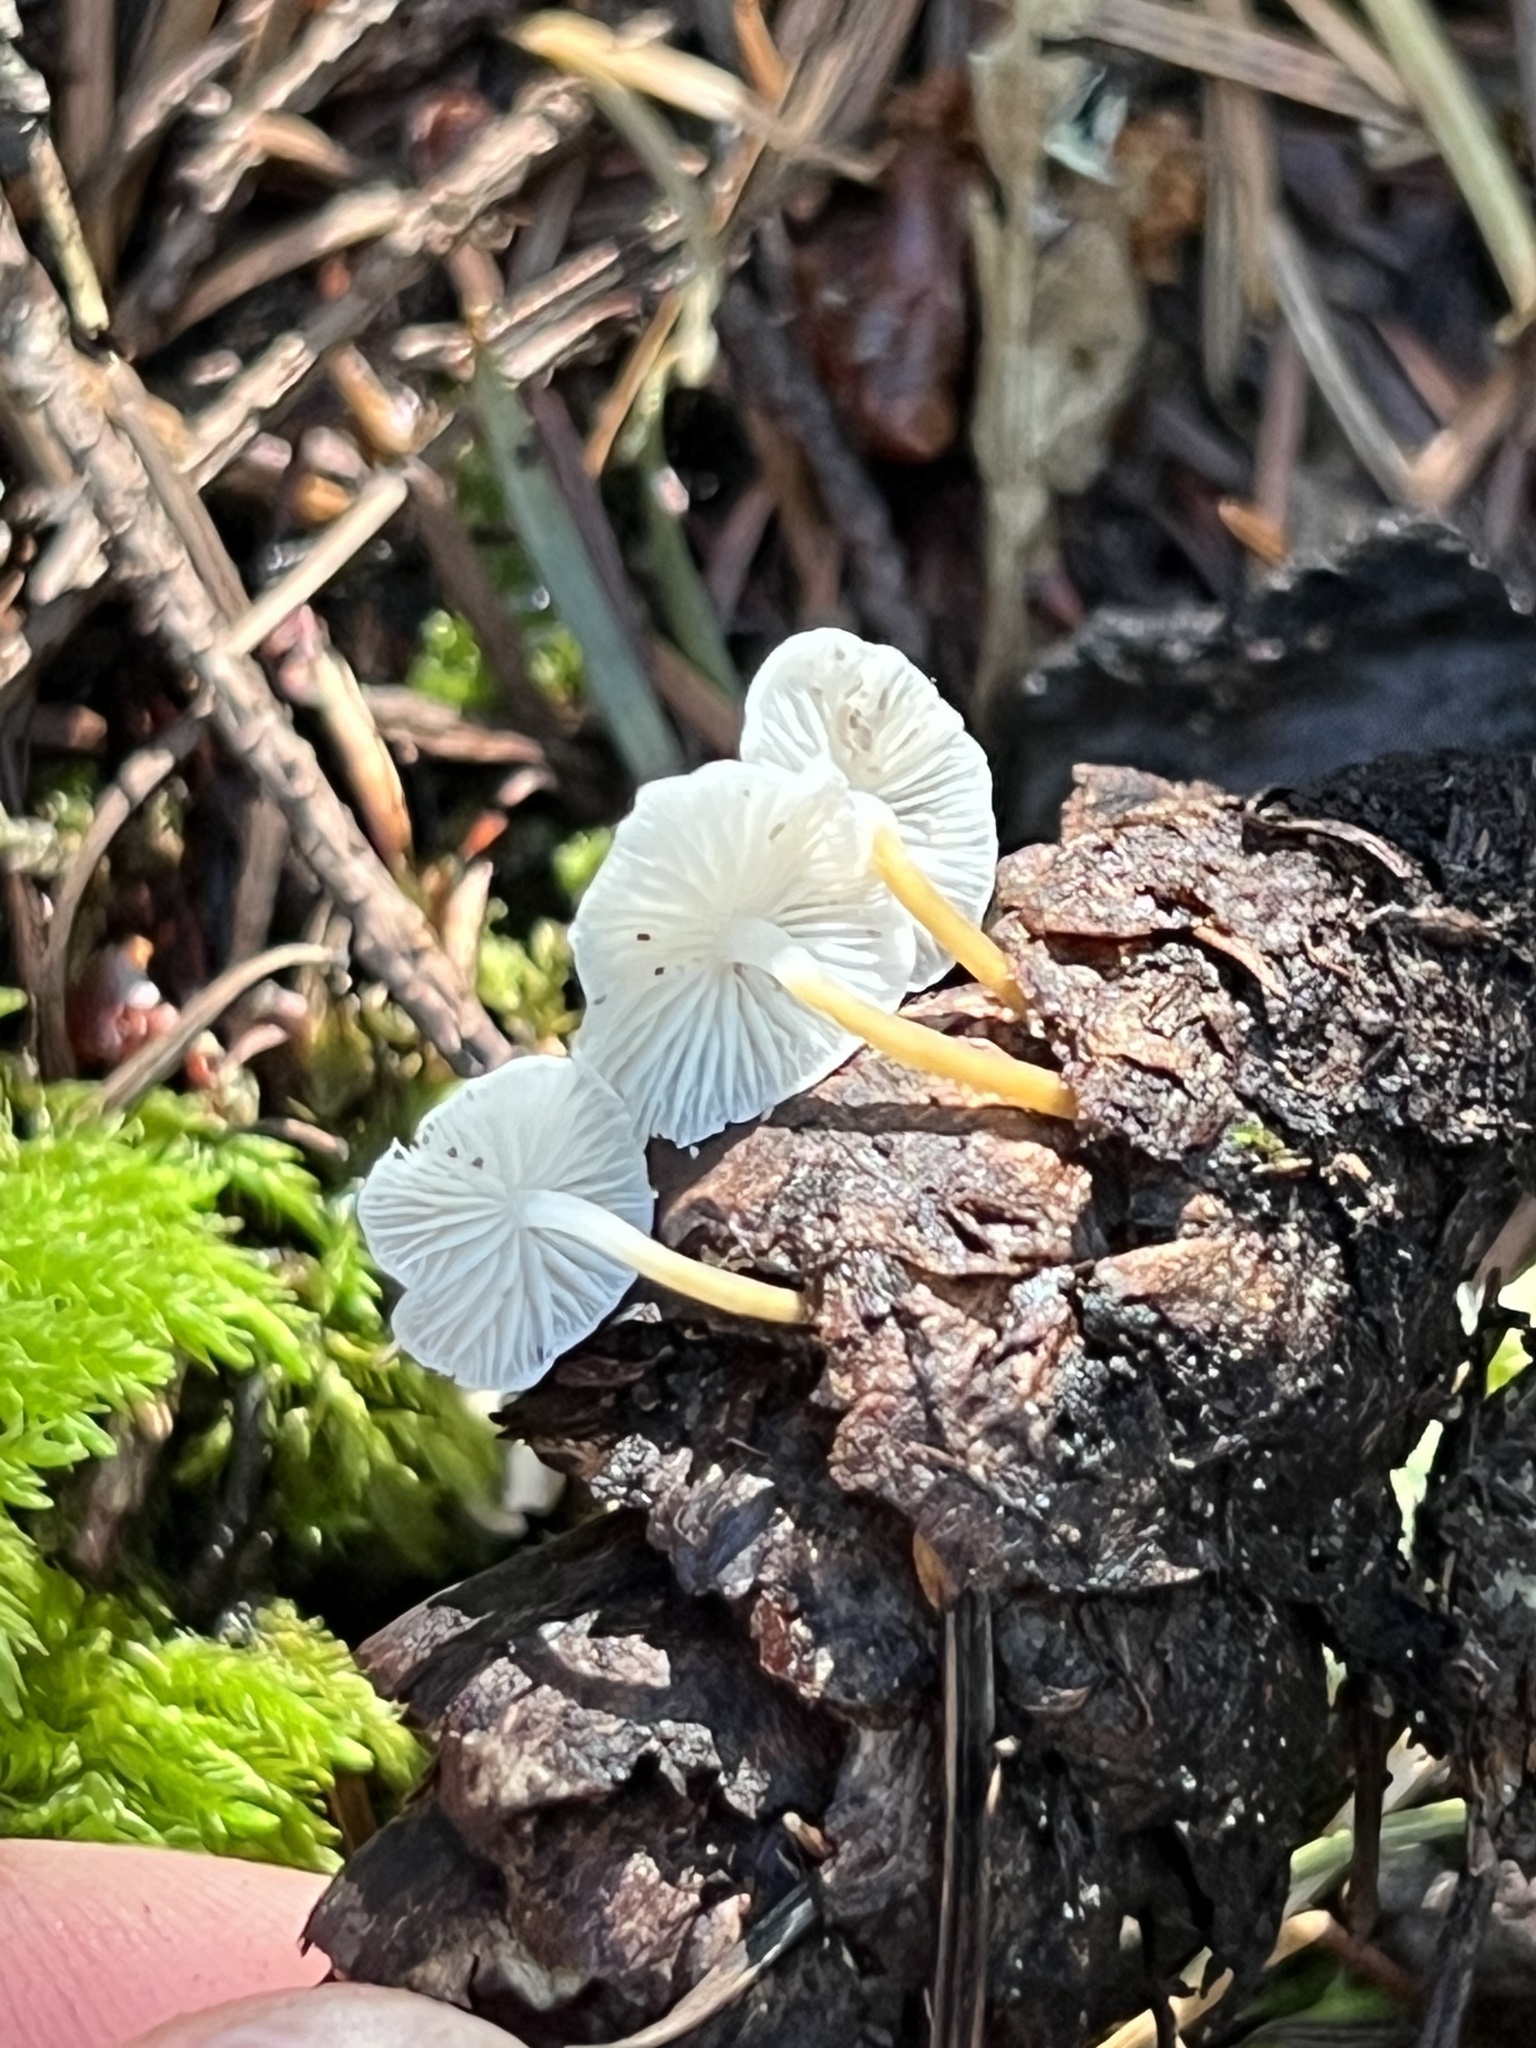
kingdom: Fungi
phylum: Basidiomycota
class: Agaricomycetes
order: Agaricales
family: Physalacriaceae
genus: Strobilurus
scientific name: Strobilurus trullisatus
